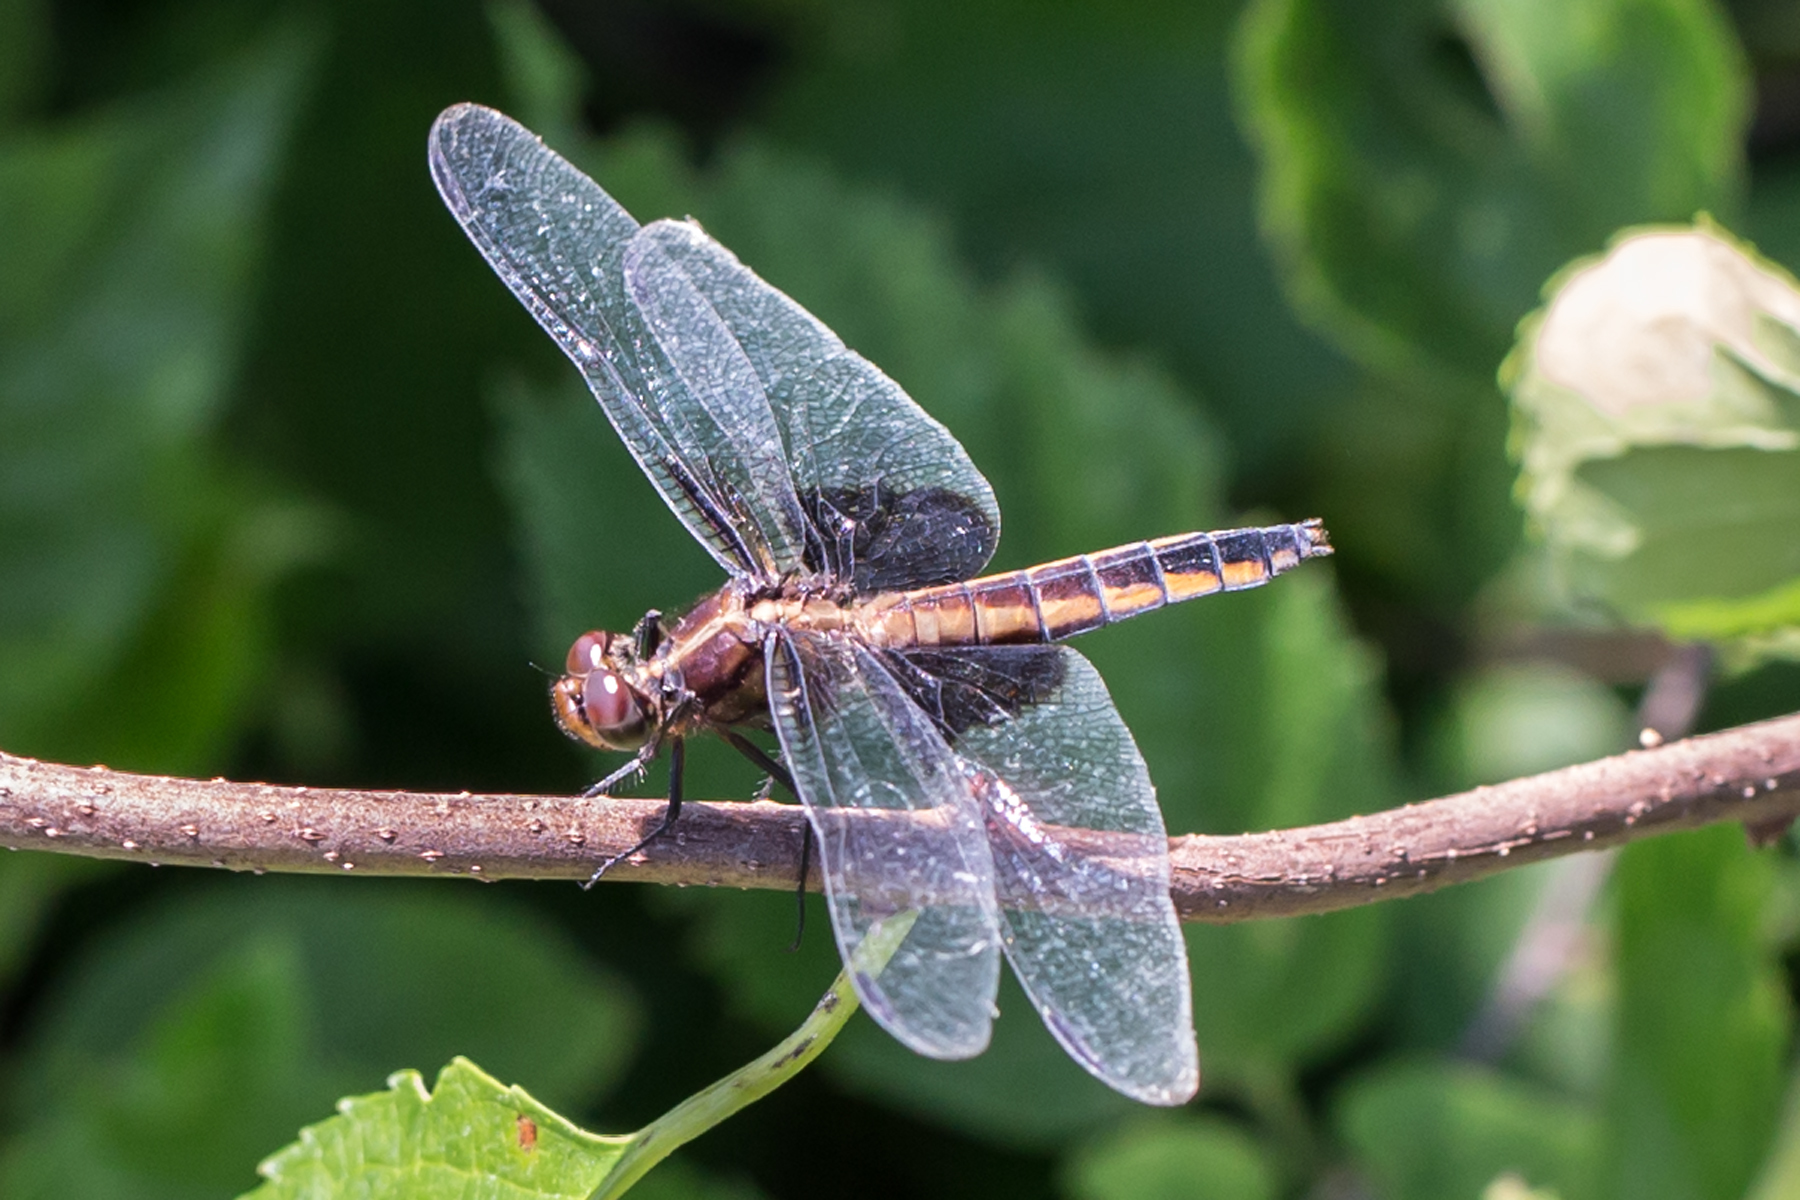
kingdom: Animalia
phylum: Arthropoda
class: Insecta
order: Odonata
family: Libellulidae
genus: Libellula
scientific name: Libellula luctuosa
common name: Widow skimmer
